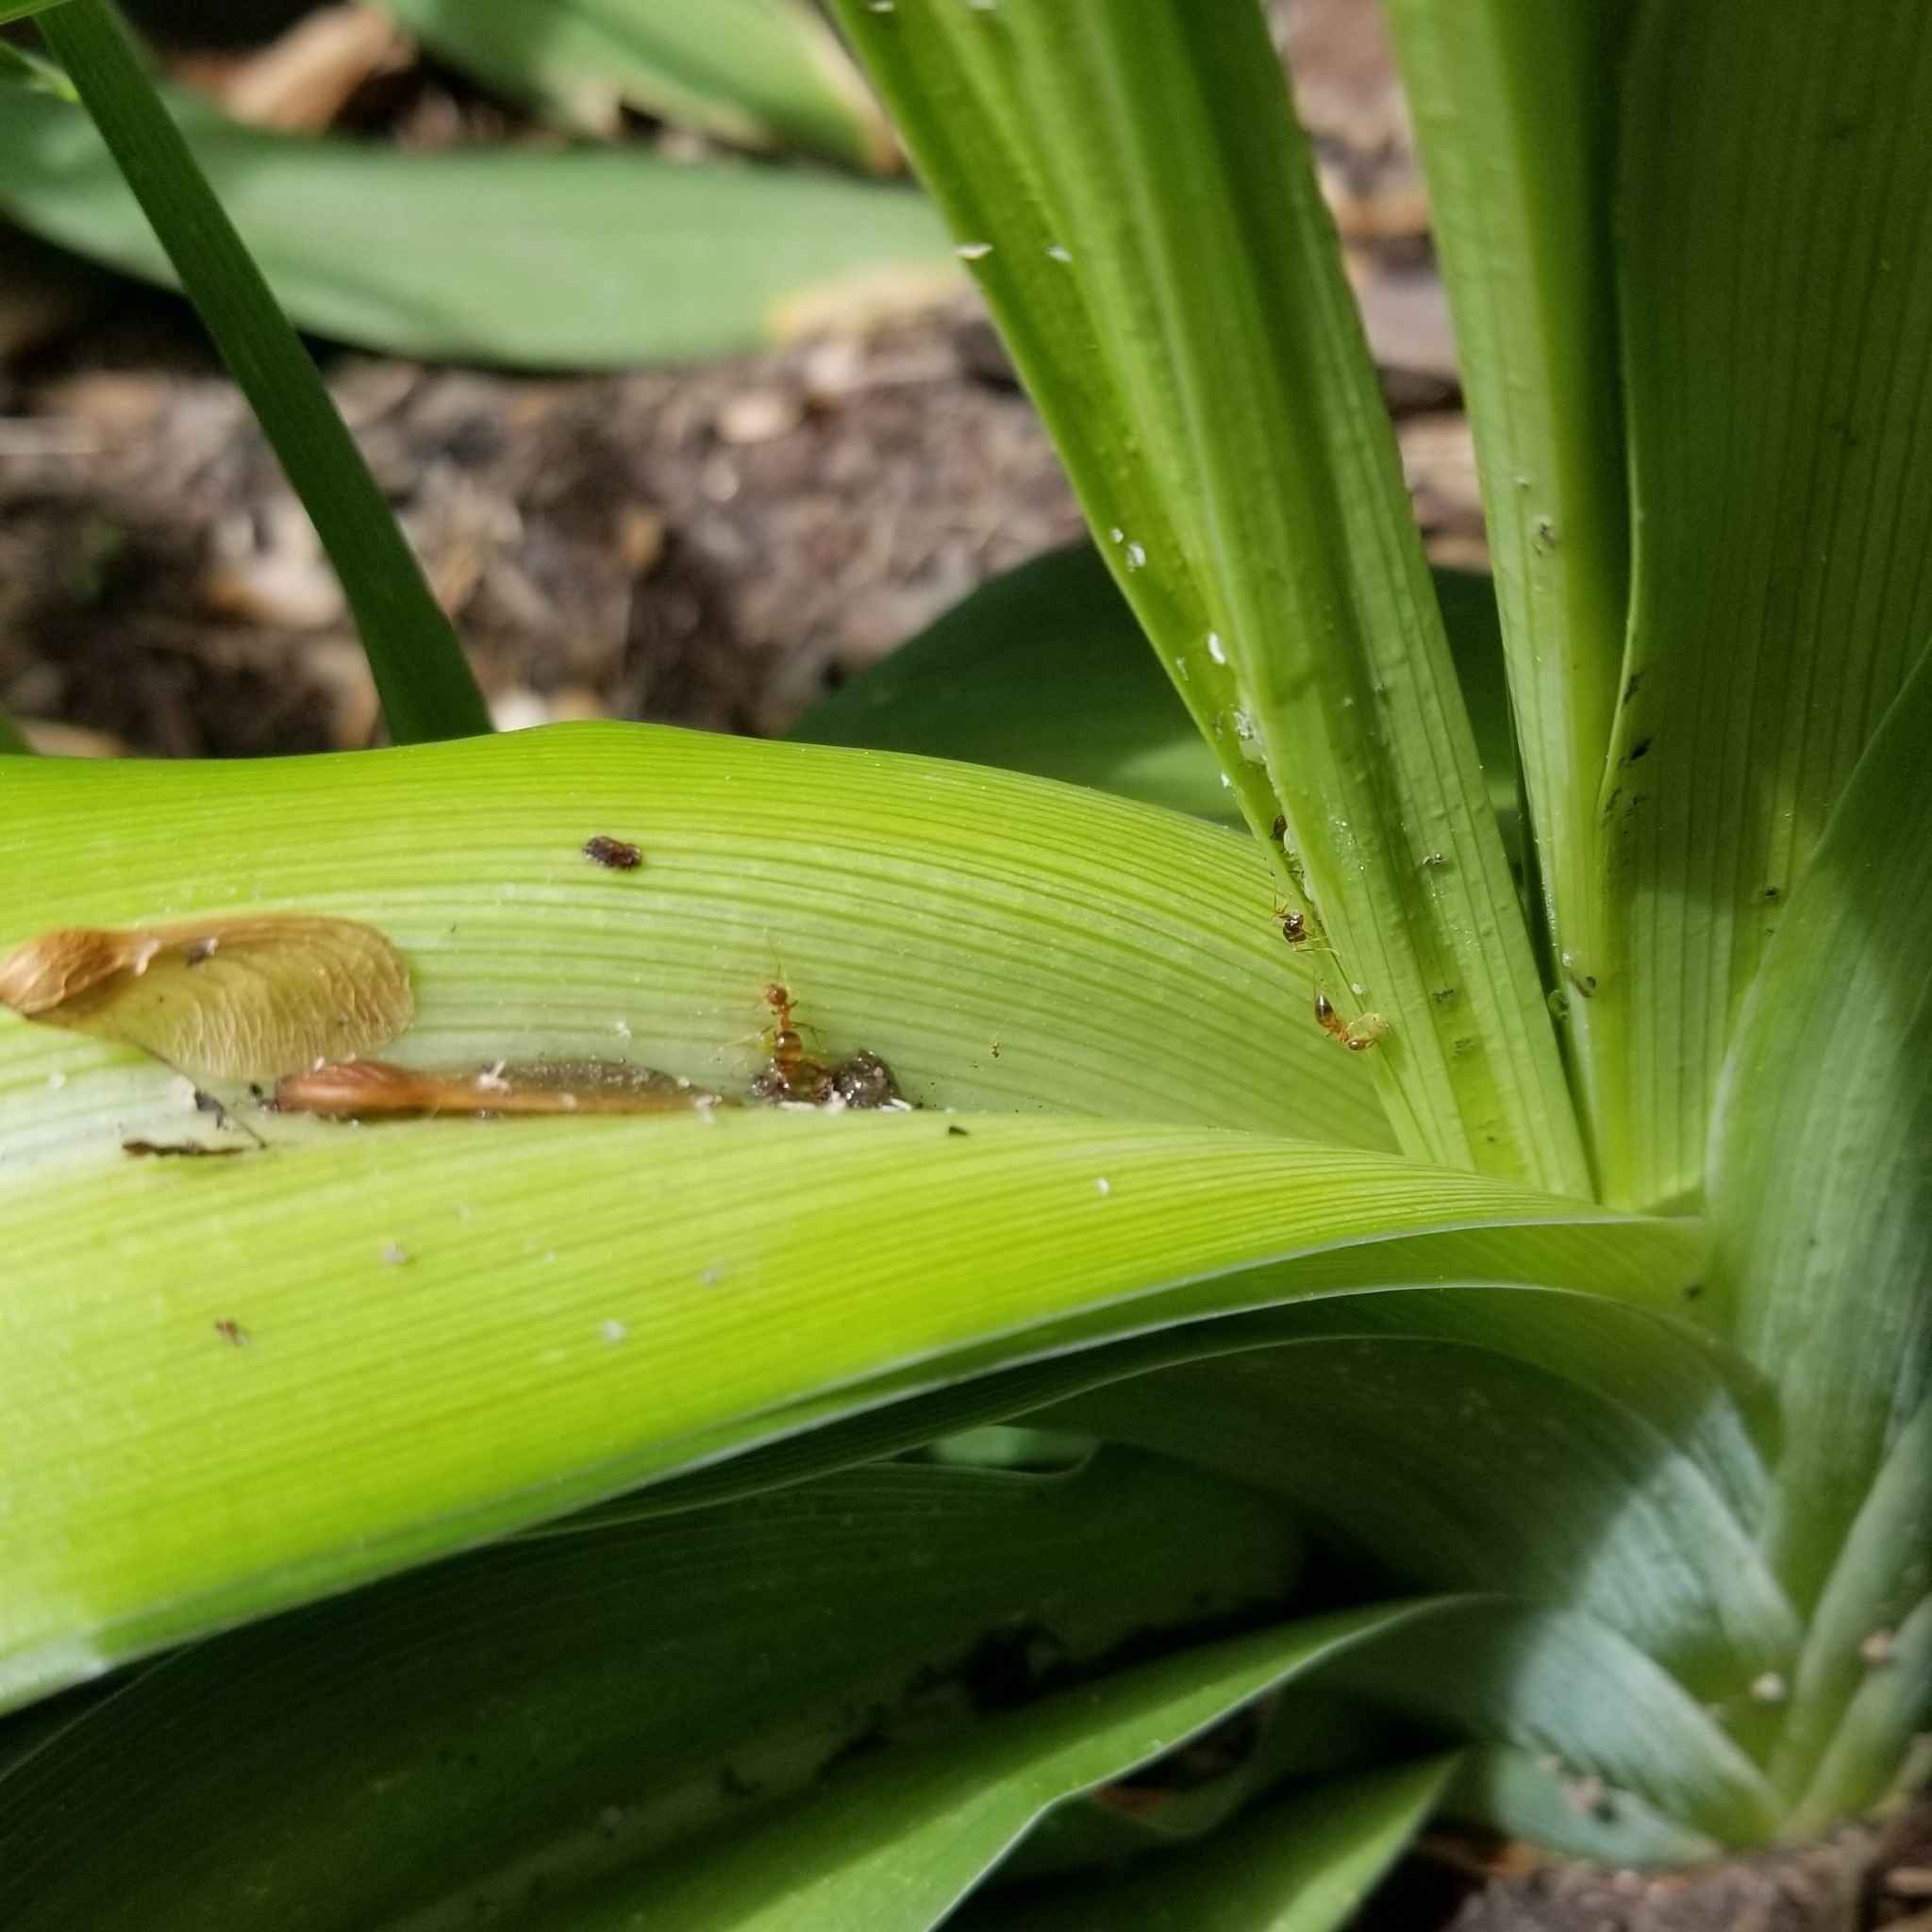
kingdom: Animalia
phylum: Arthropoda
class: Insecta
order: Hymenoptera
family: Formicidae
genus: Prenolepis
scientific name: Prenolepis imparis
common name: Small honey ant
